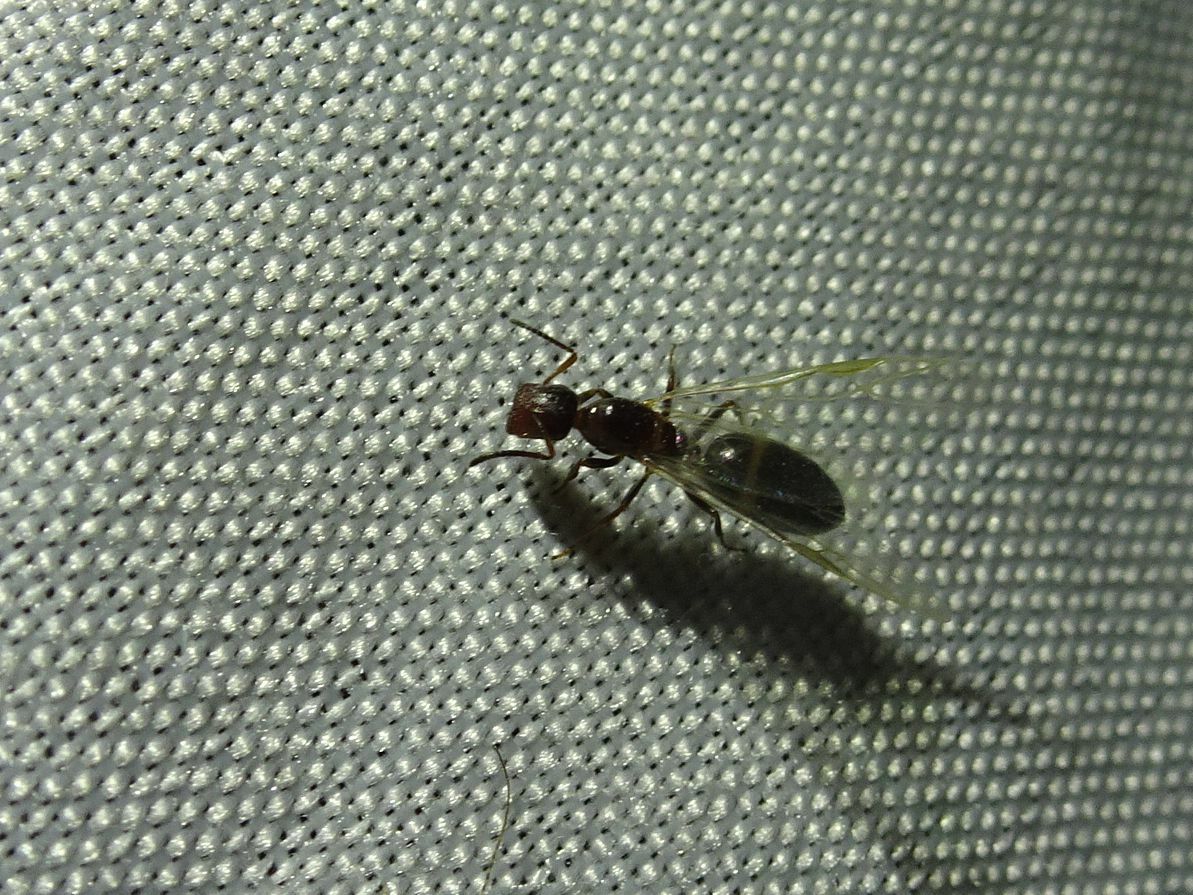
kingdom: Animalia
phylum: Arthropoda
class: Insecta
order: Hymenoptera
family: Formicidae
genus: Camponotus
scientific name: Camponotus truncatus
